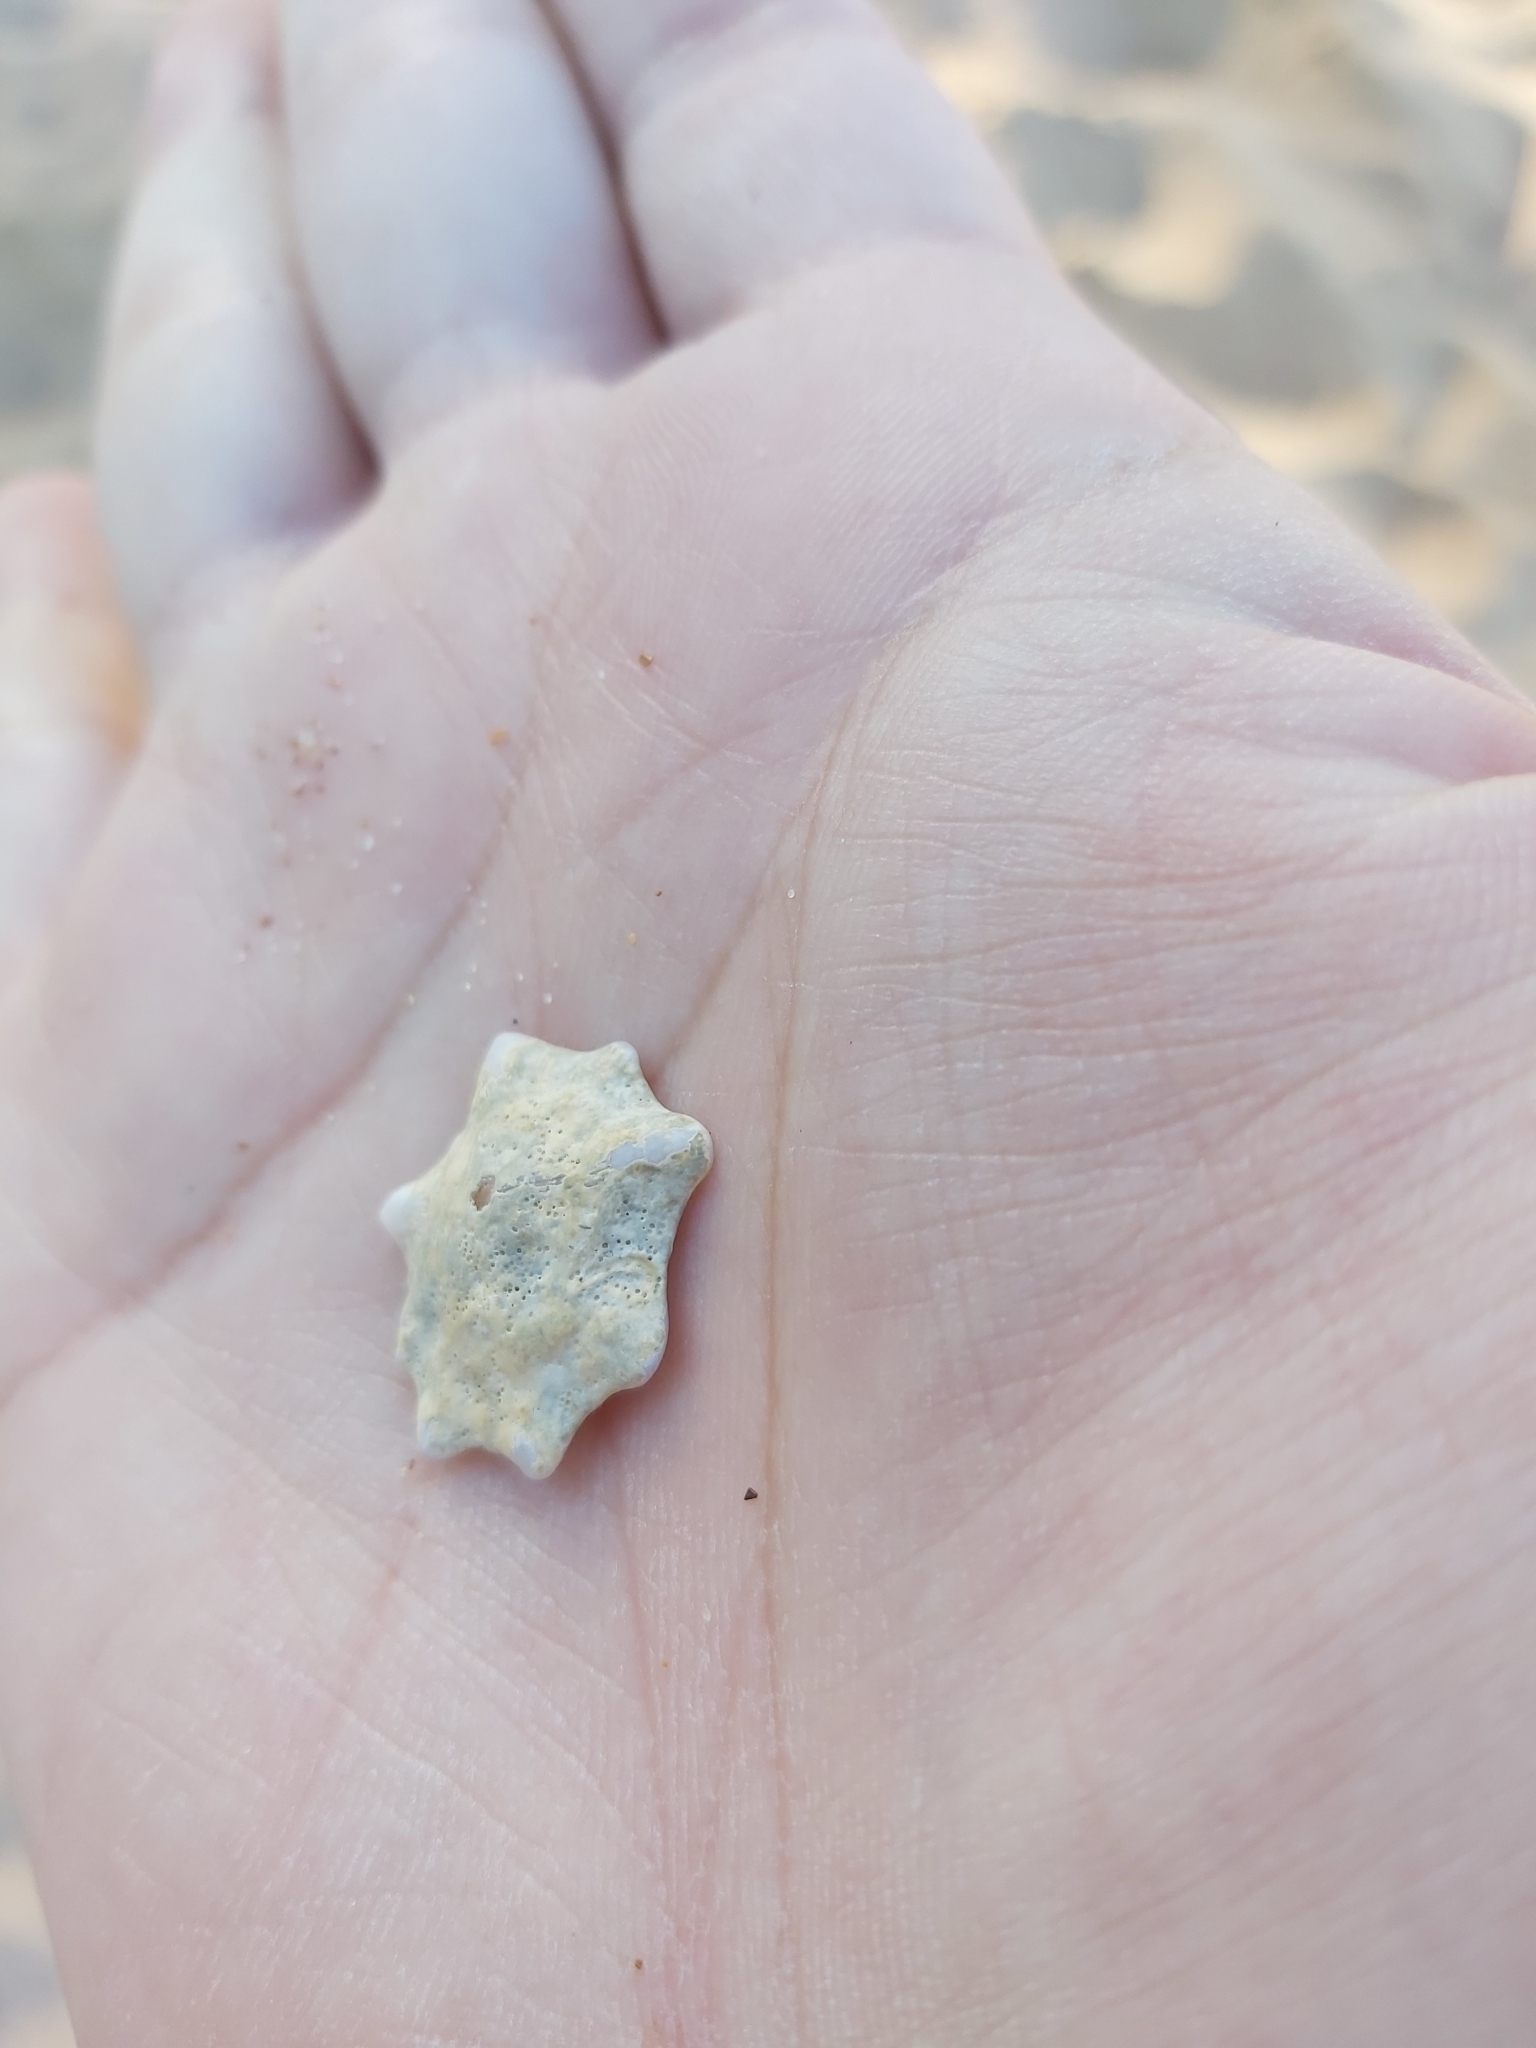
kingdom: Animalia
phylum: Mollusca
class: Gastropoda
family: Patellidae
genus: Scutellastra
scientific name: Scutellastra chapmani
